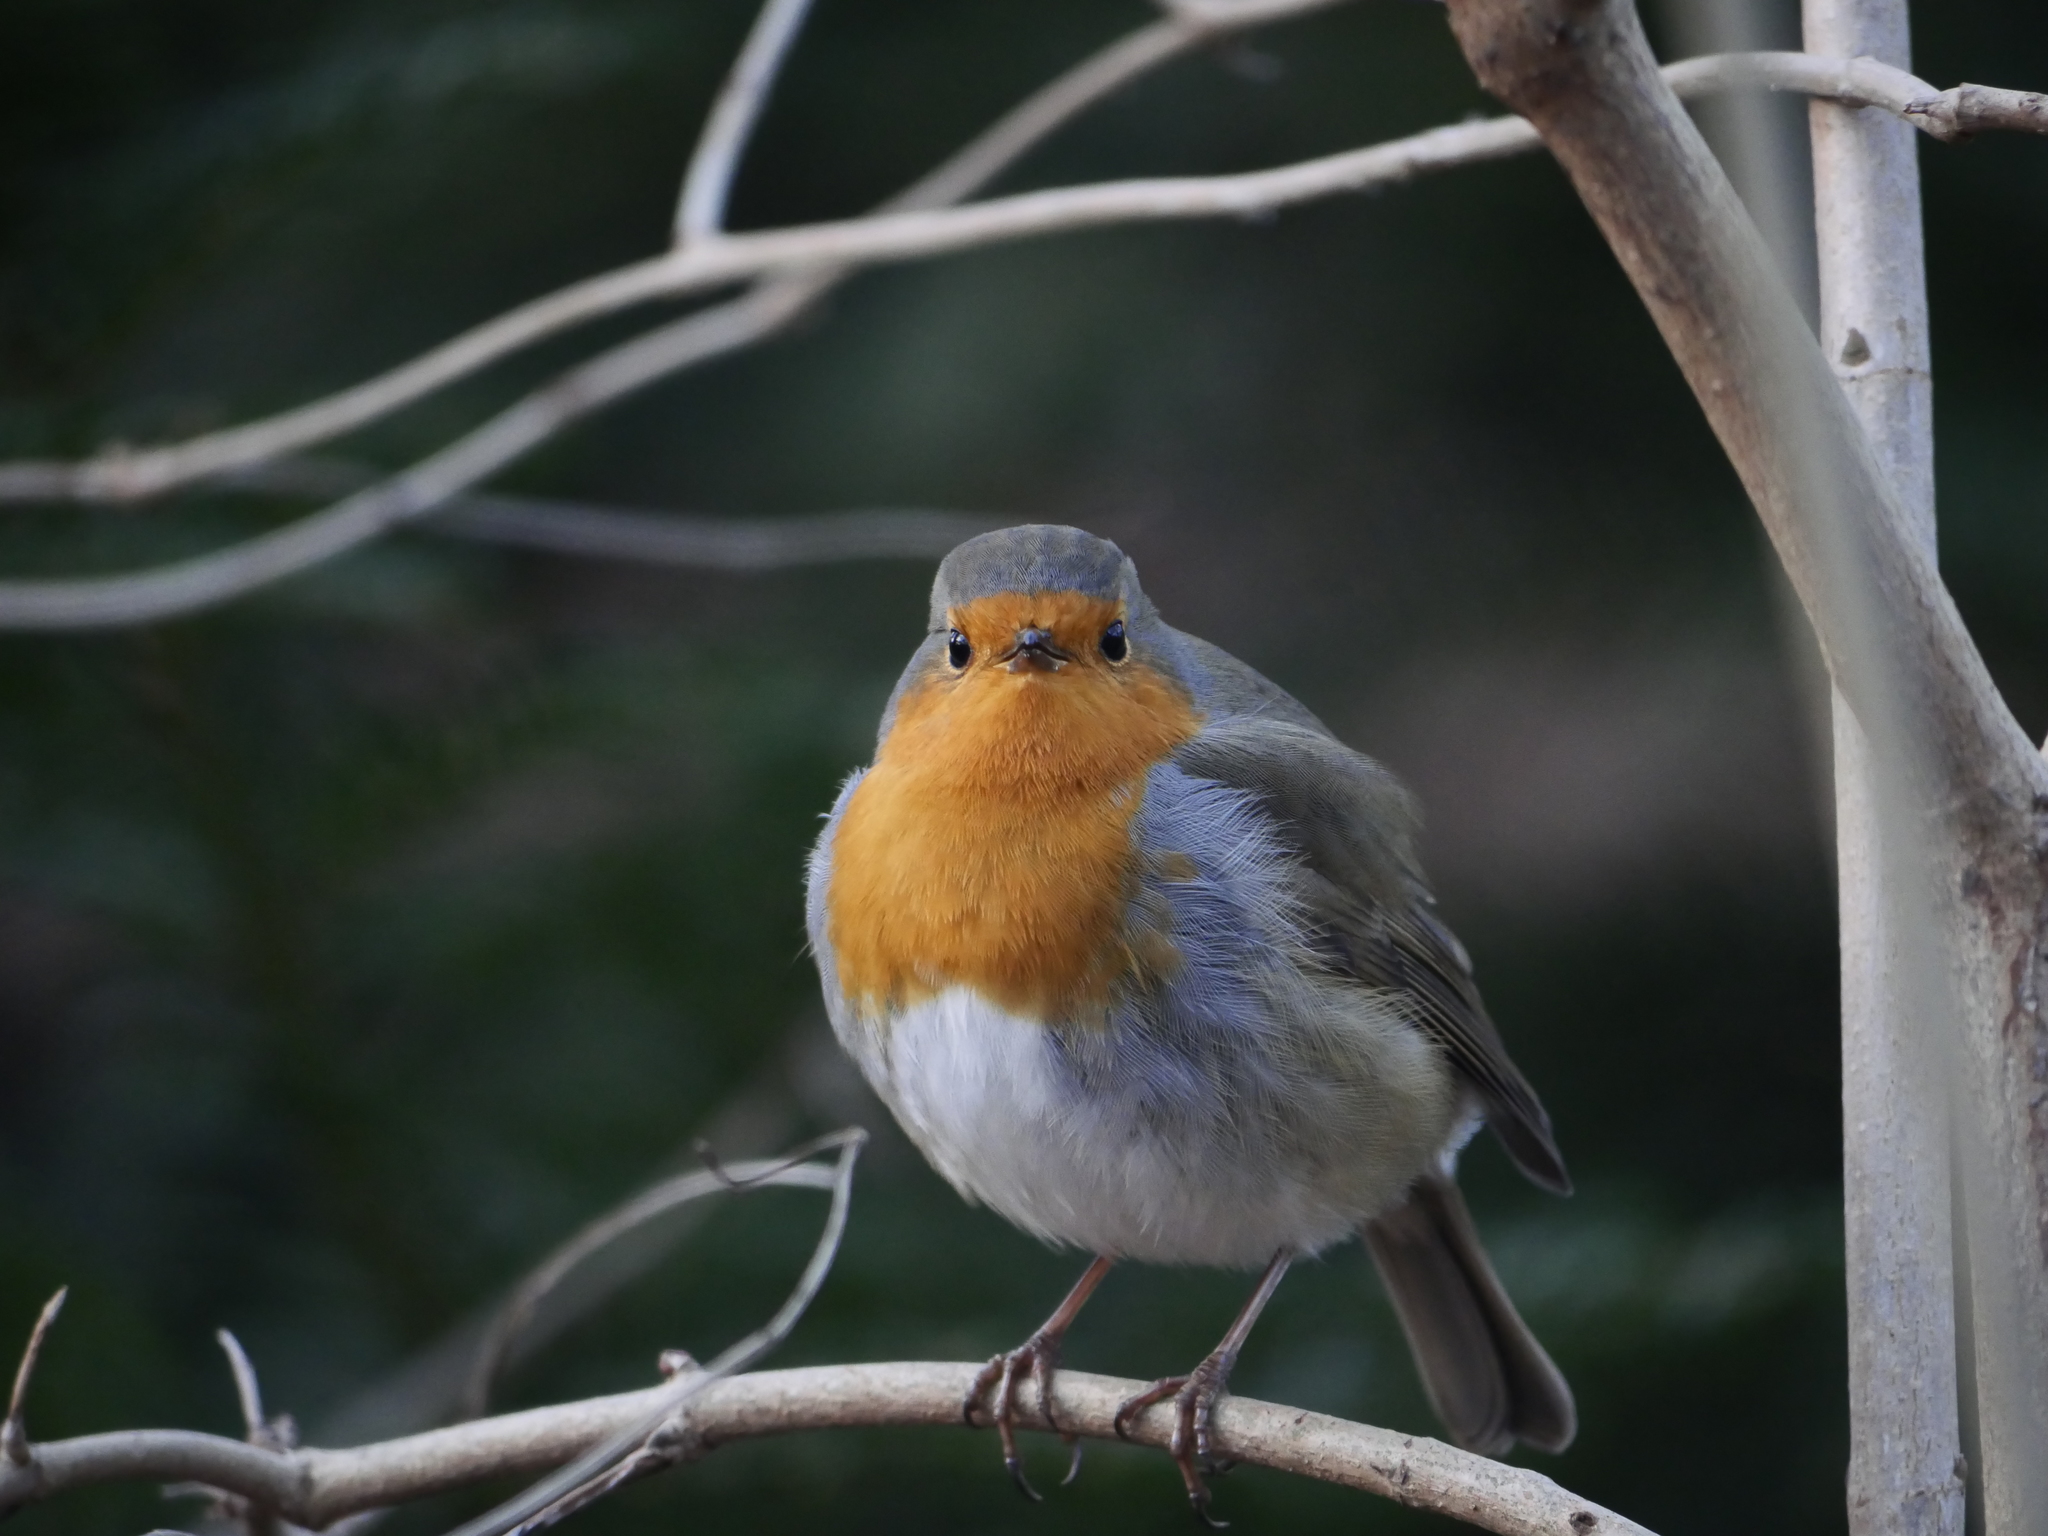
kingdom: Animalia
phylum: Chordata
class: Aves
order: Passeriformes
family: Muscicapidae
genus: Erithacus
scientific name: Erithacus rubecula
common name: European robin
